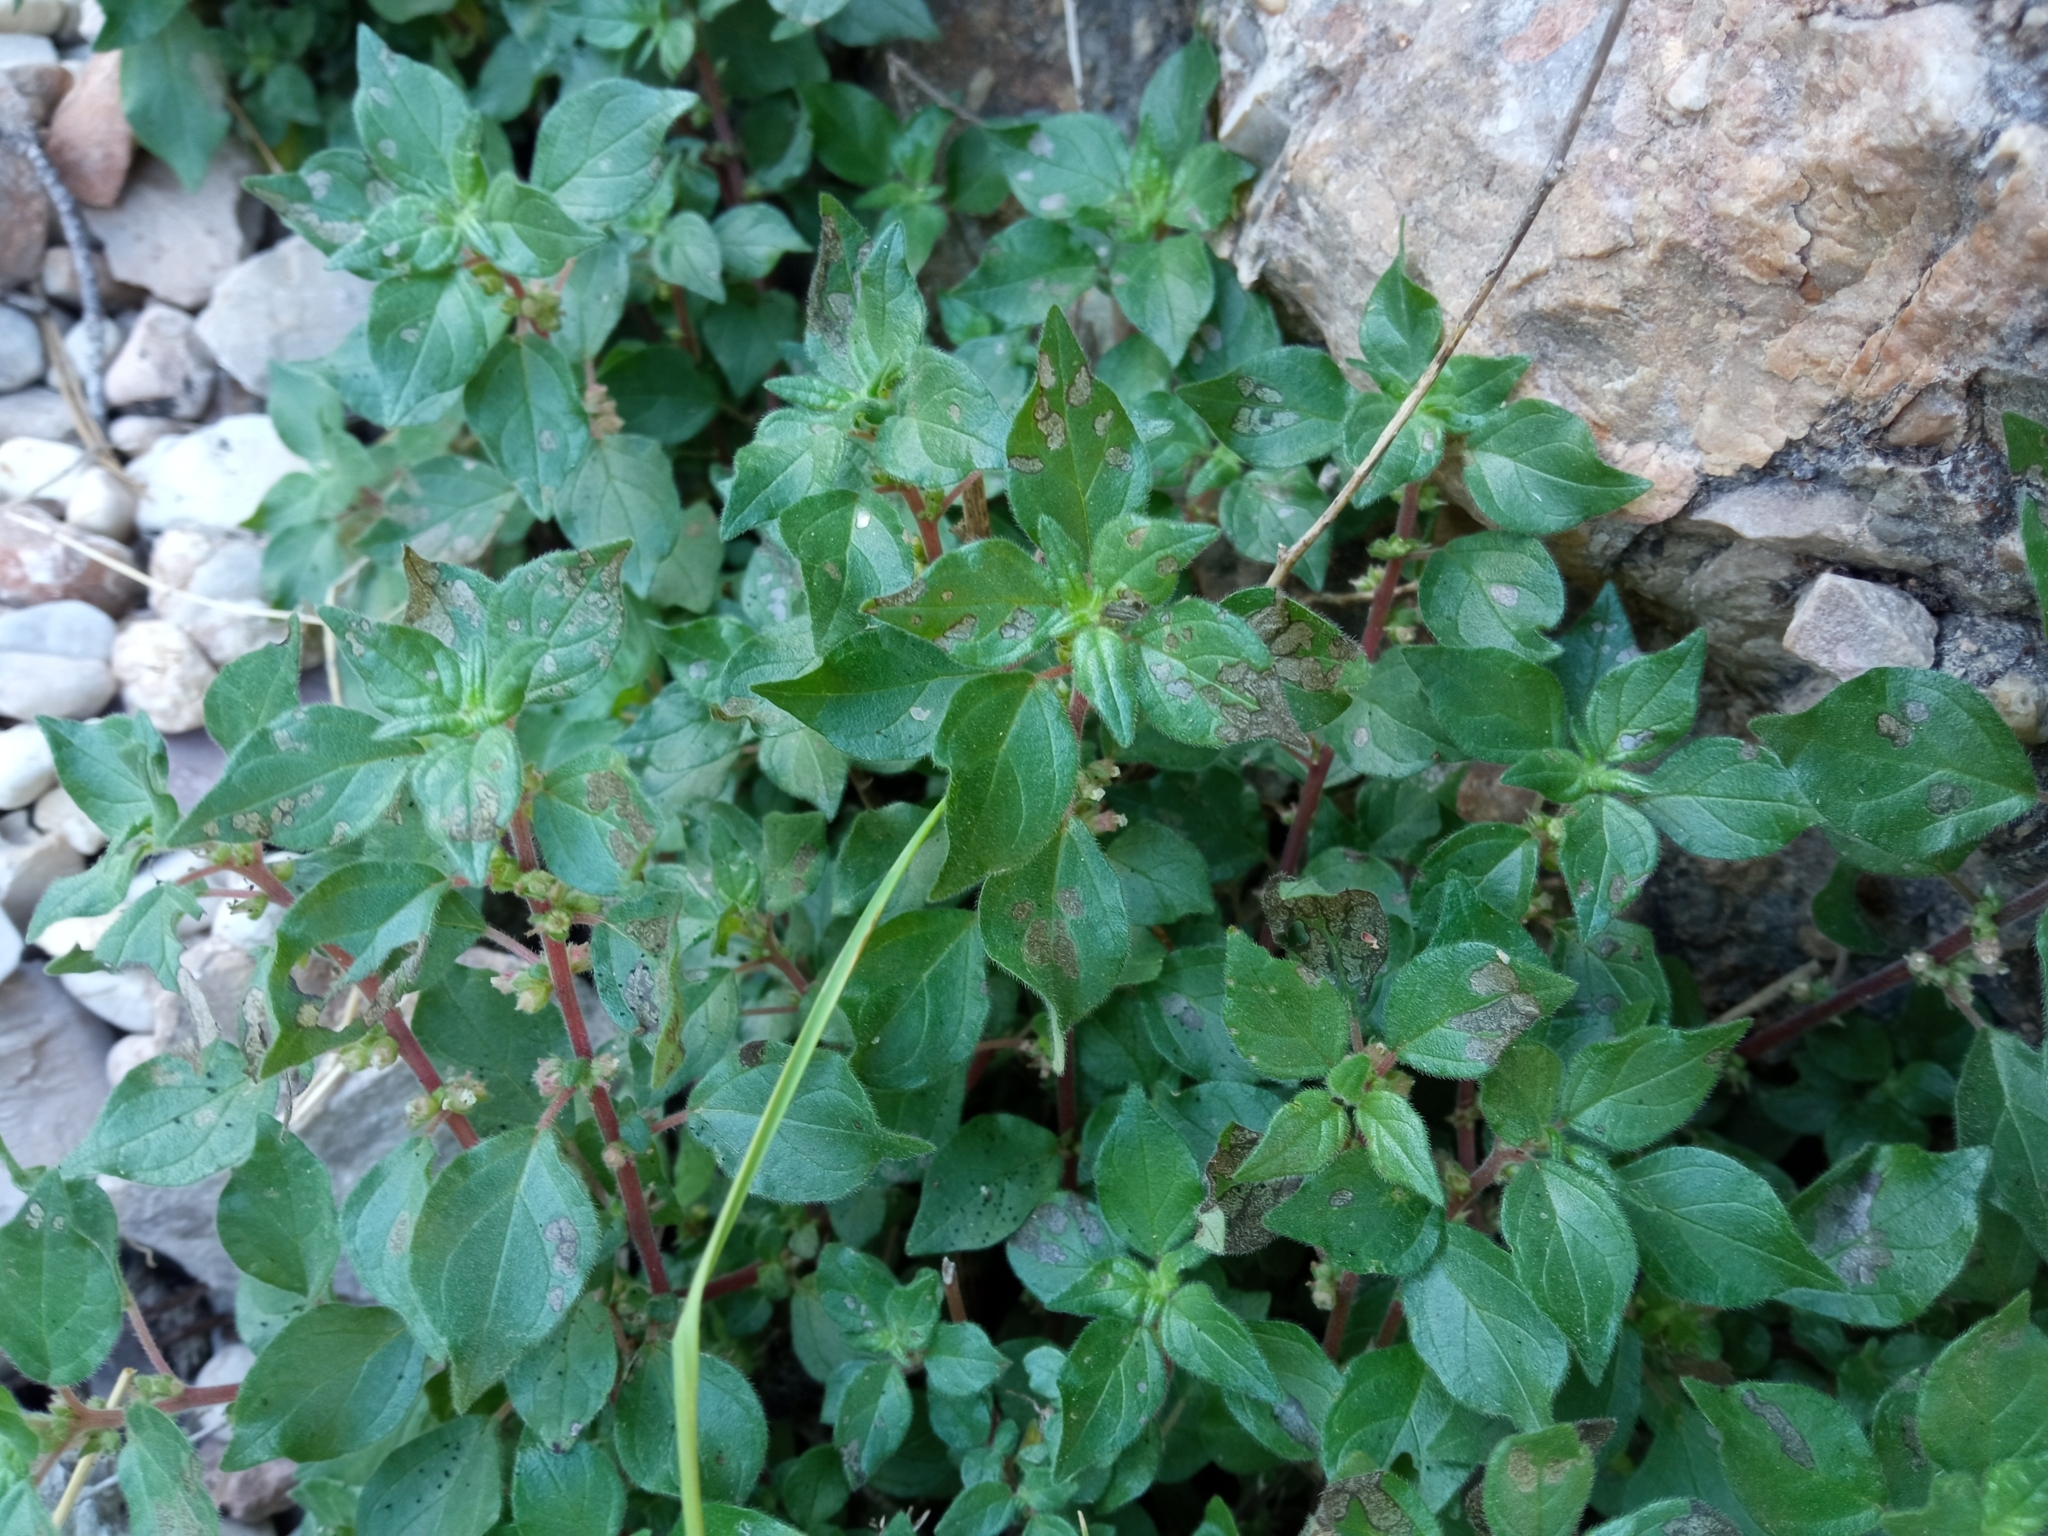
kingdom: Plantae
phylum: Tracheophyta
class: Magnoliopsida
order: Rosales
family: Urticaceae
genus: Parietaria
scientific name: Parietaria judaica
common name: Pellitory-of-the-wall
